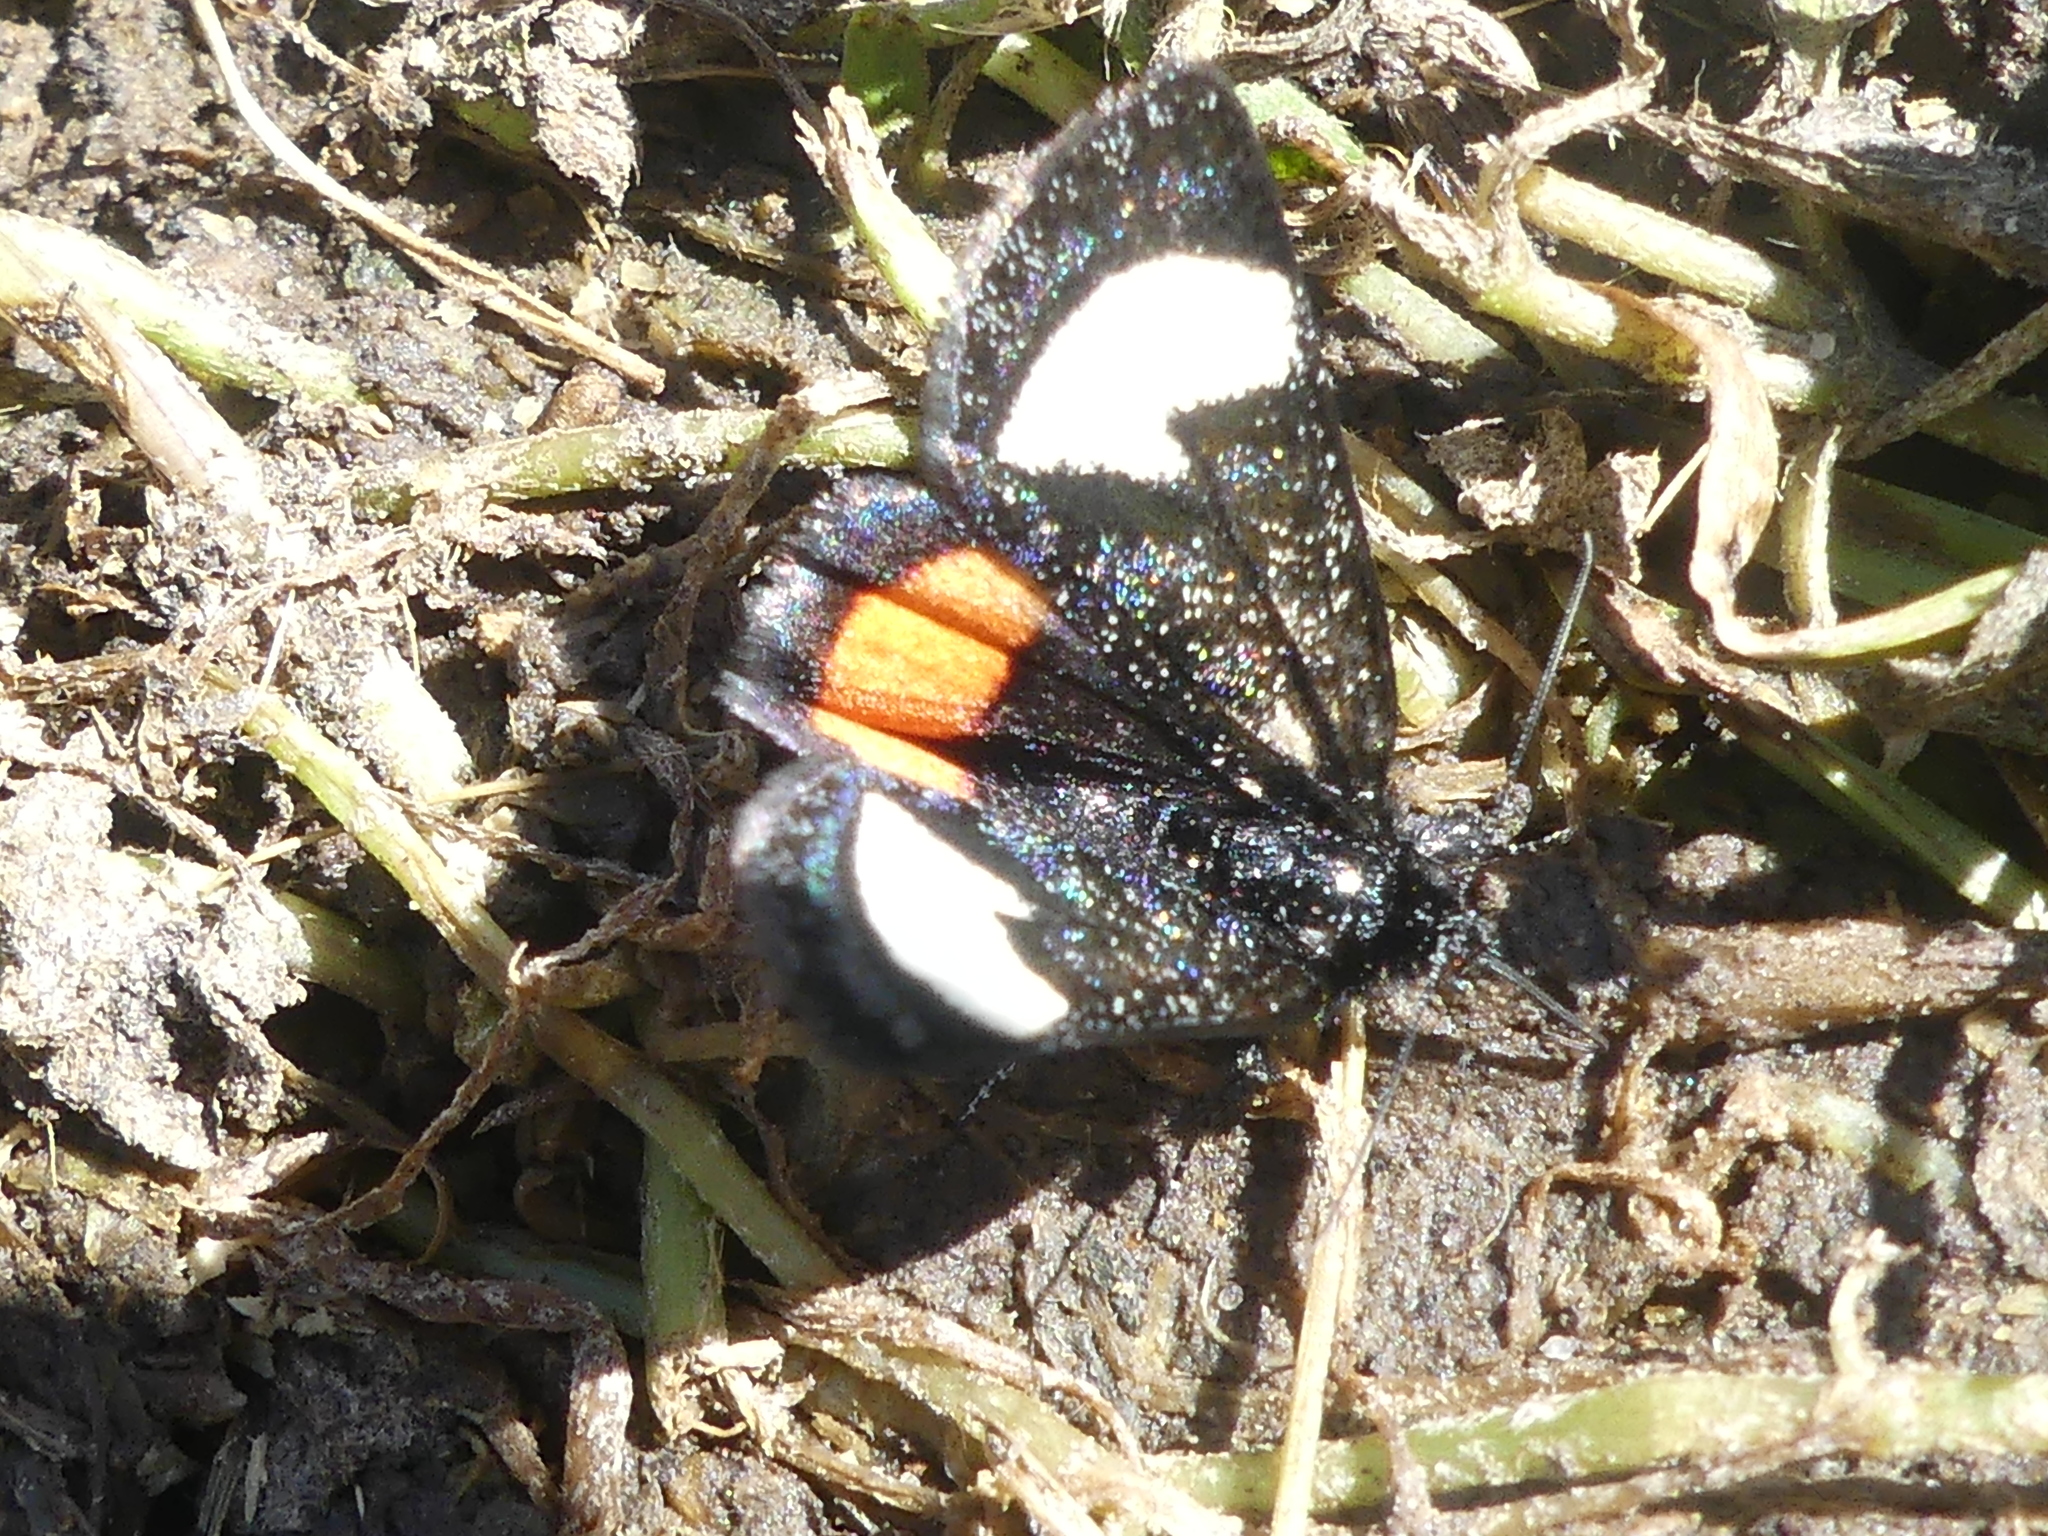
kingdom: Animalia
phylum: Arthropoda
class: Insecta
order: Lepidoptera
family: Noctuidae
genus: Psychomorpha
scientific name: Psychomorpha epimenis
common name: Grapevine epimenis moth
